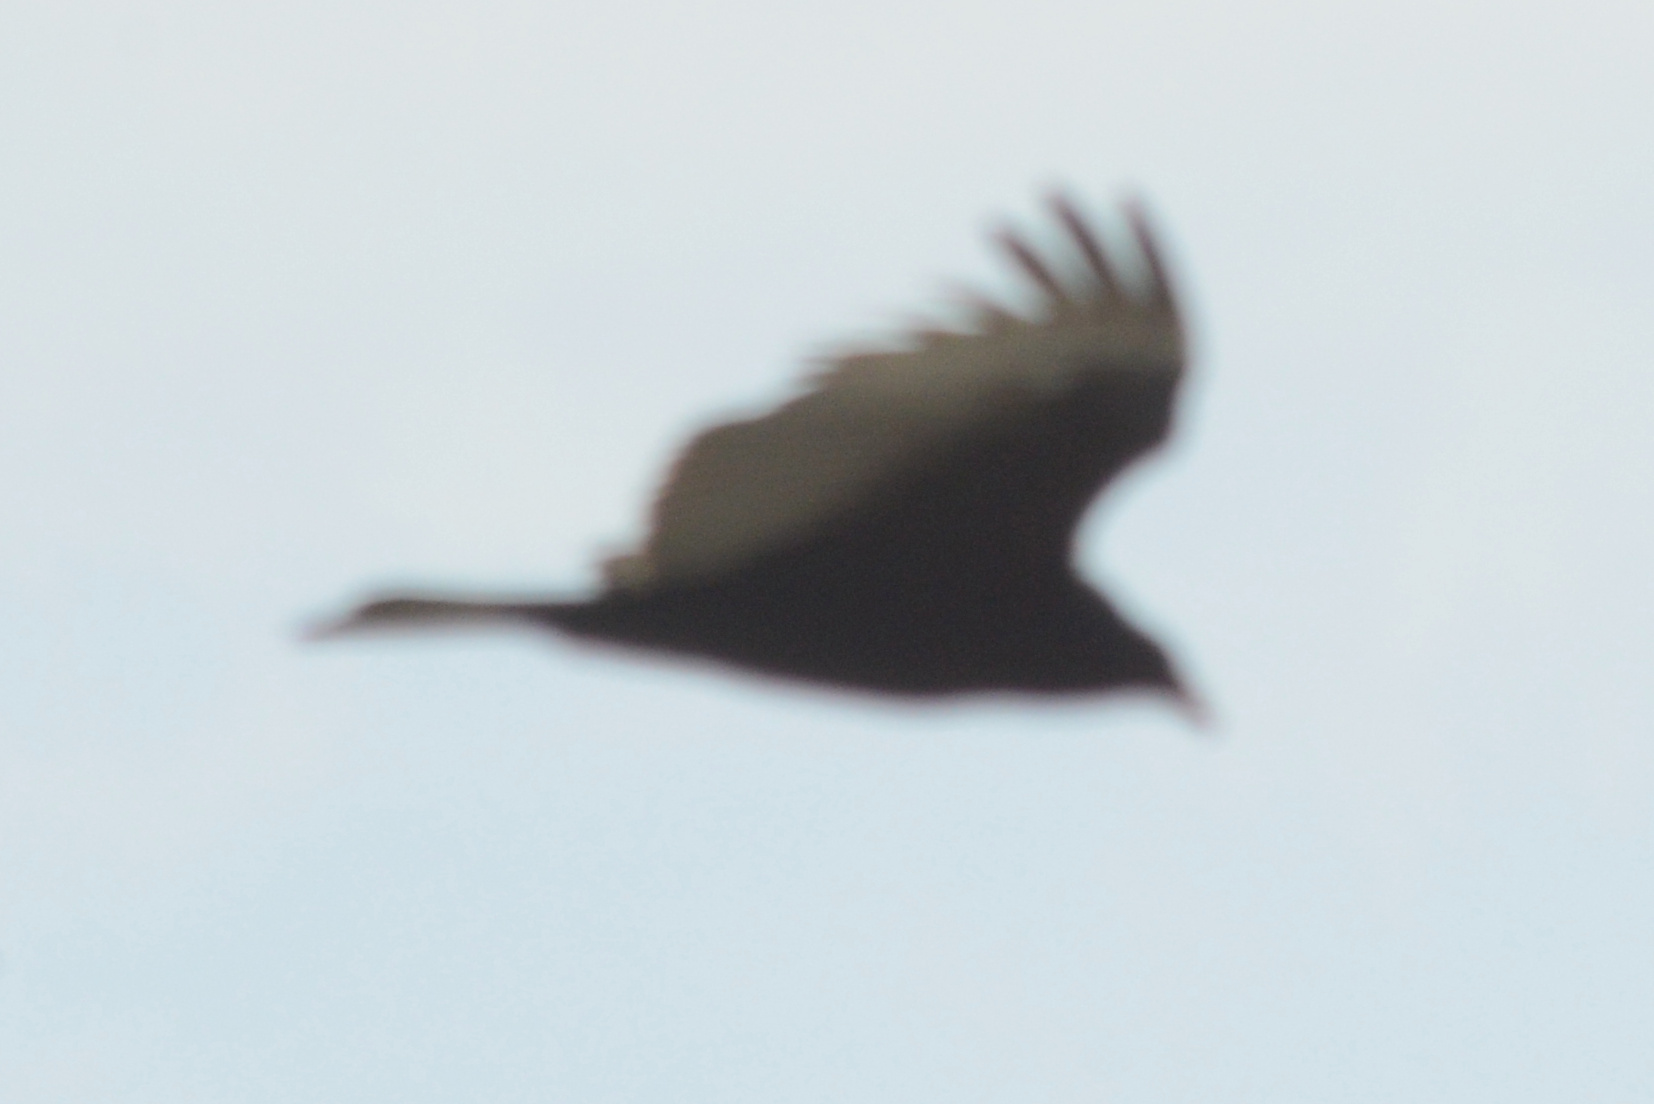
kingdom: Animalia
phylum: Chordata
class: Aves
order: Accipitriformes
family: Cathartidae
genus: Cathartes
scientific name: Cathartes aura
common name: Turkey vulture
